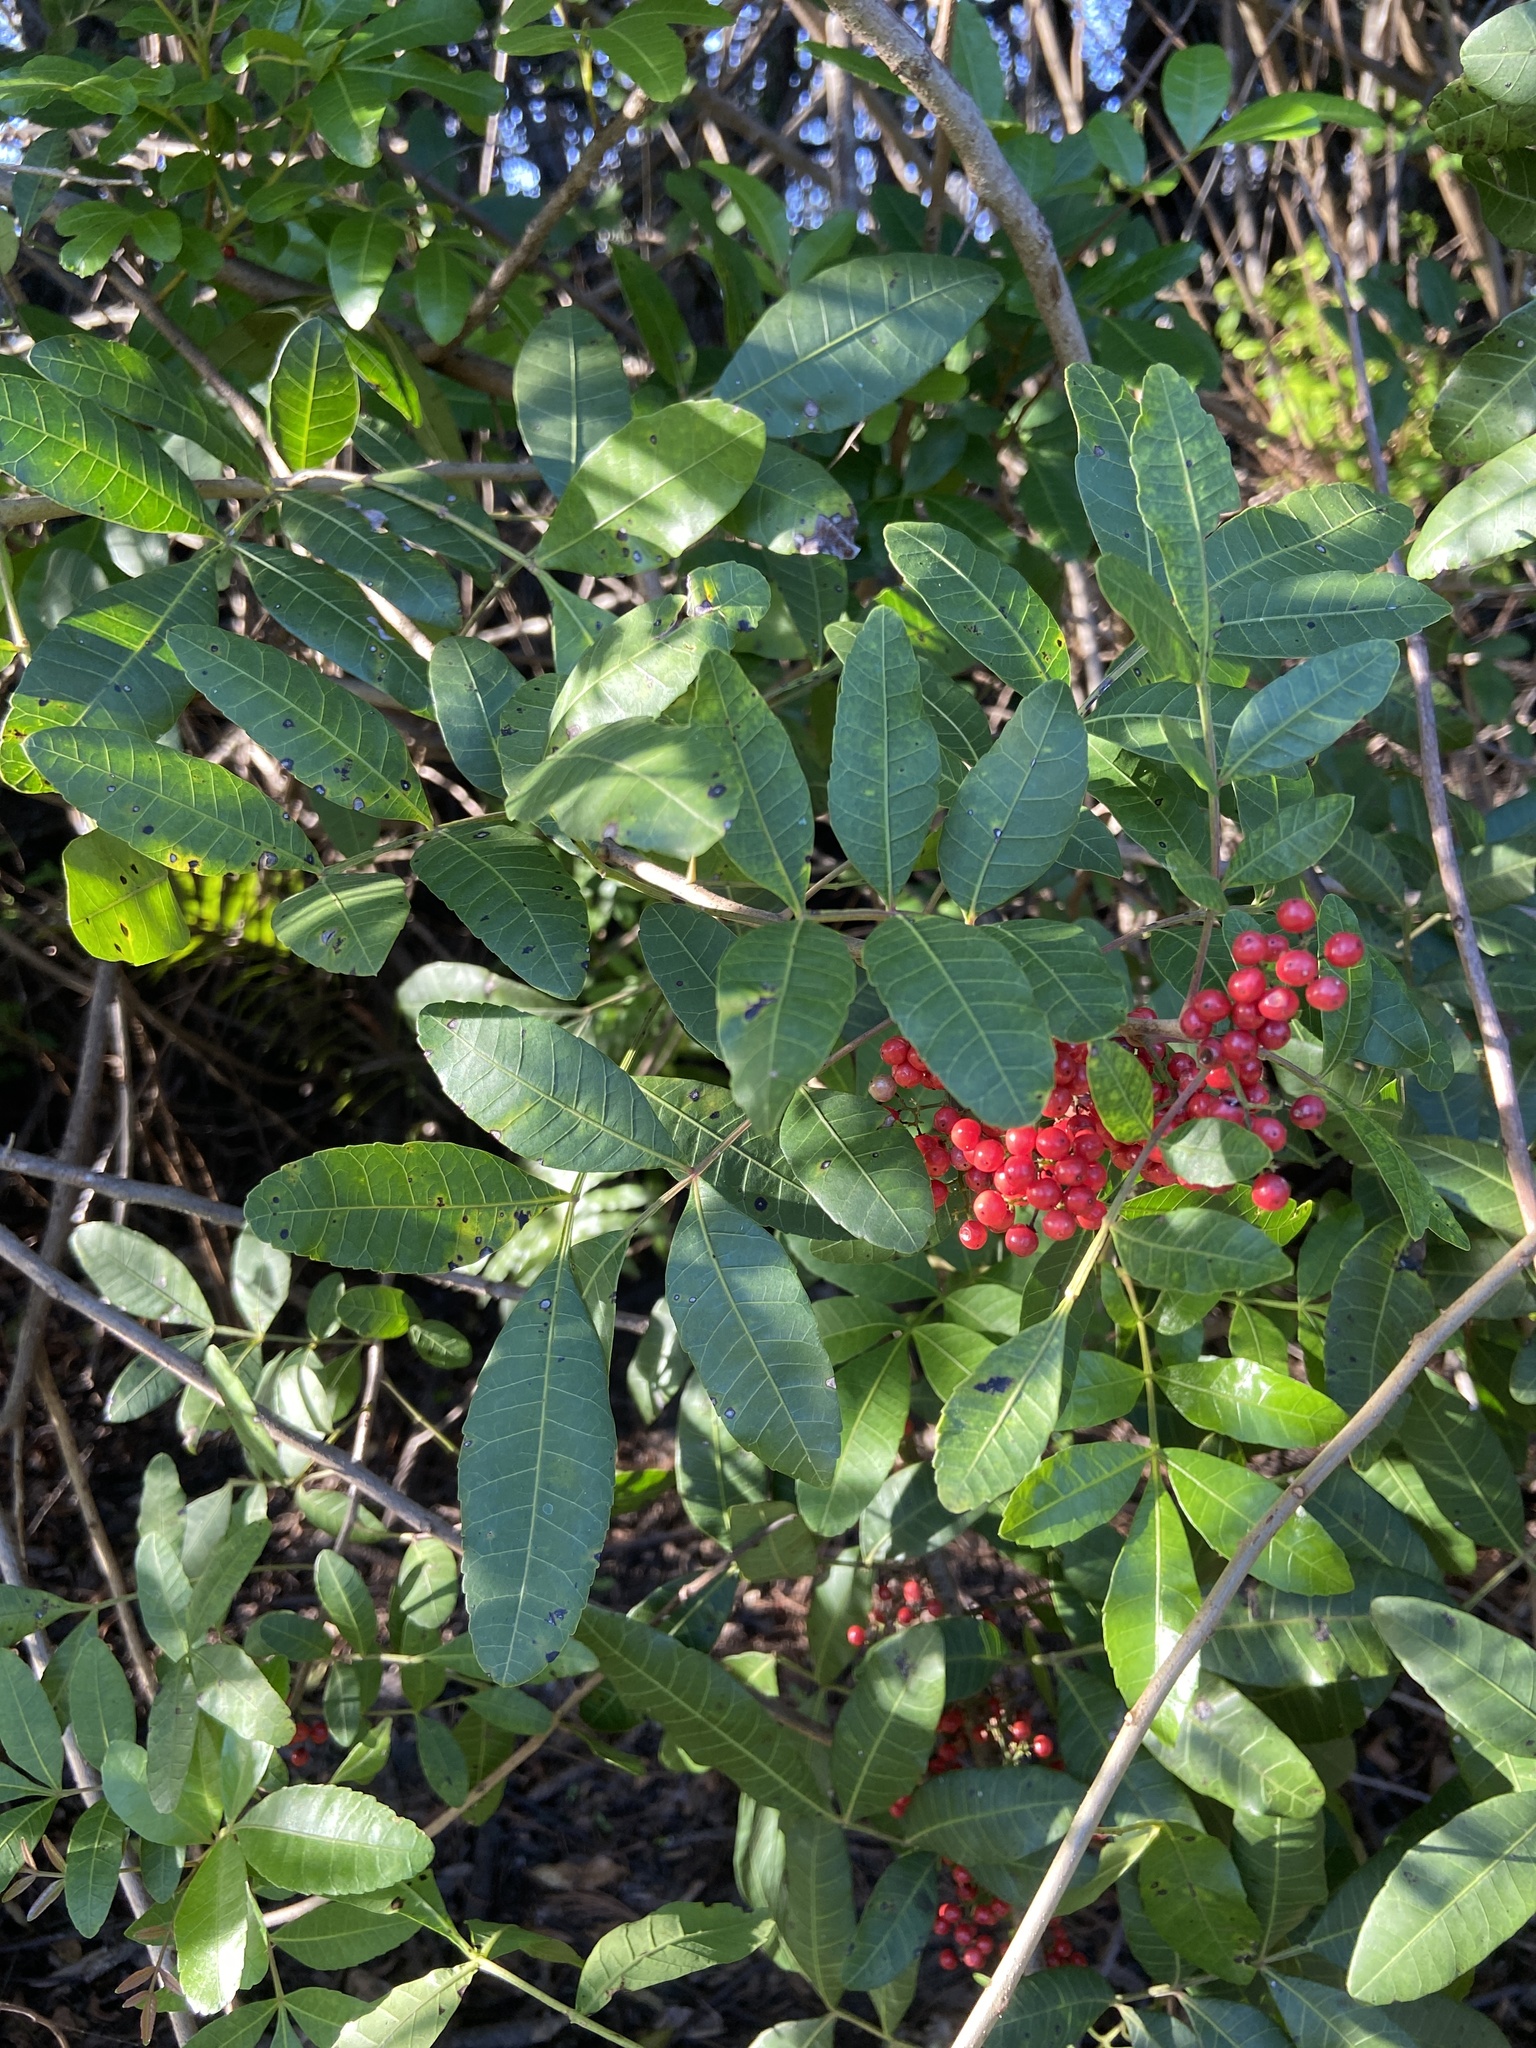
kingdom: Plantae
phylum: Tracheophyta
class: Magnoliopsida
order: Sapindales
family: Anacardiaceae
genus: Schinus
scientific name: Schinus terebinthifolia
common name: Brazilian peppertree
